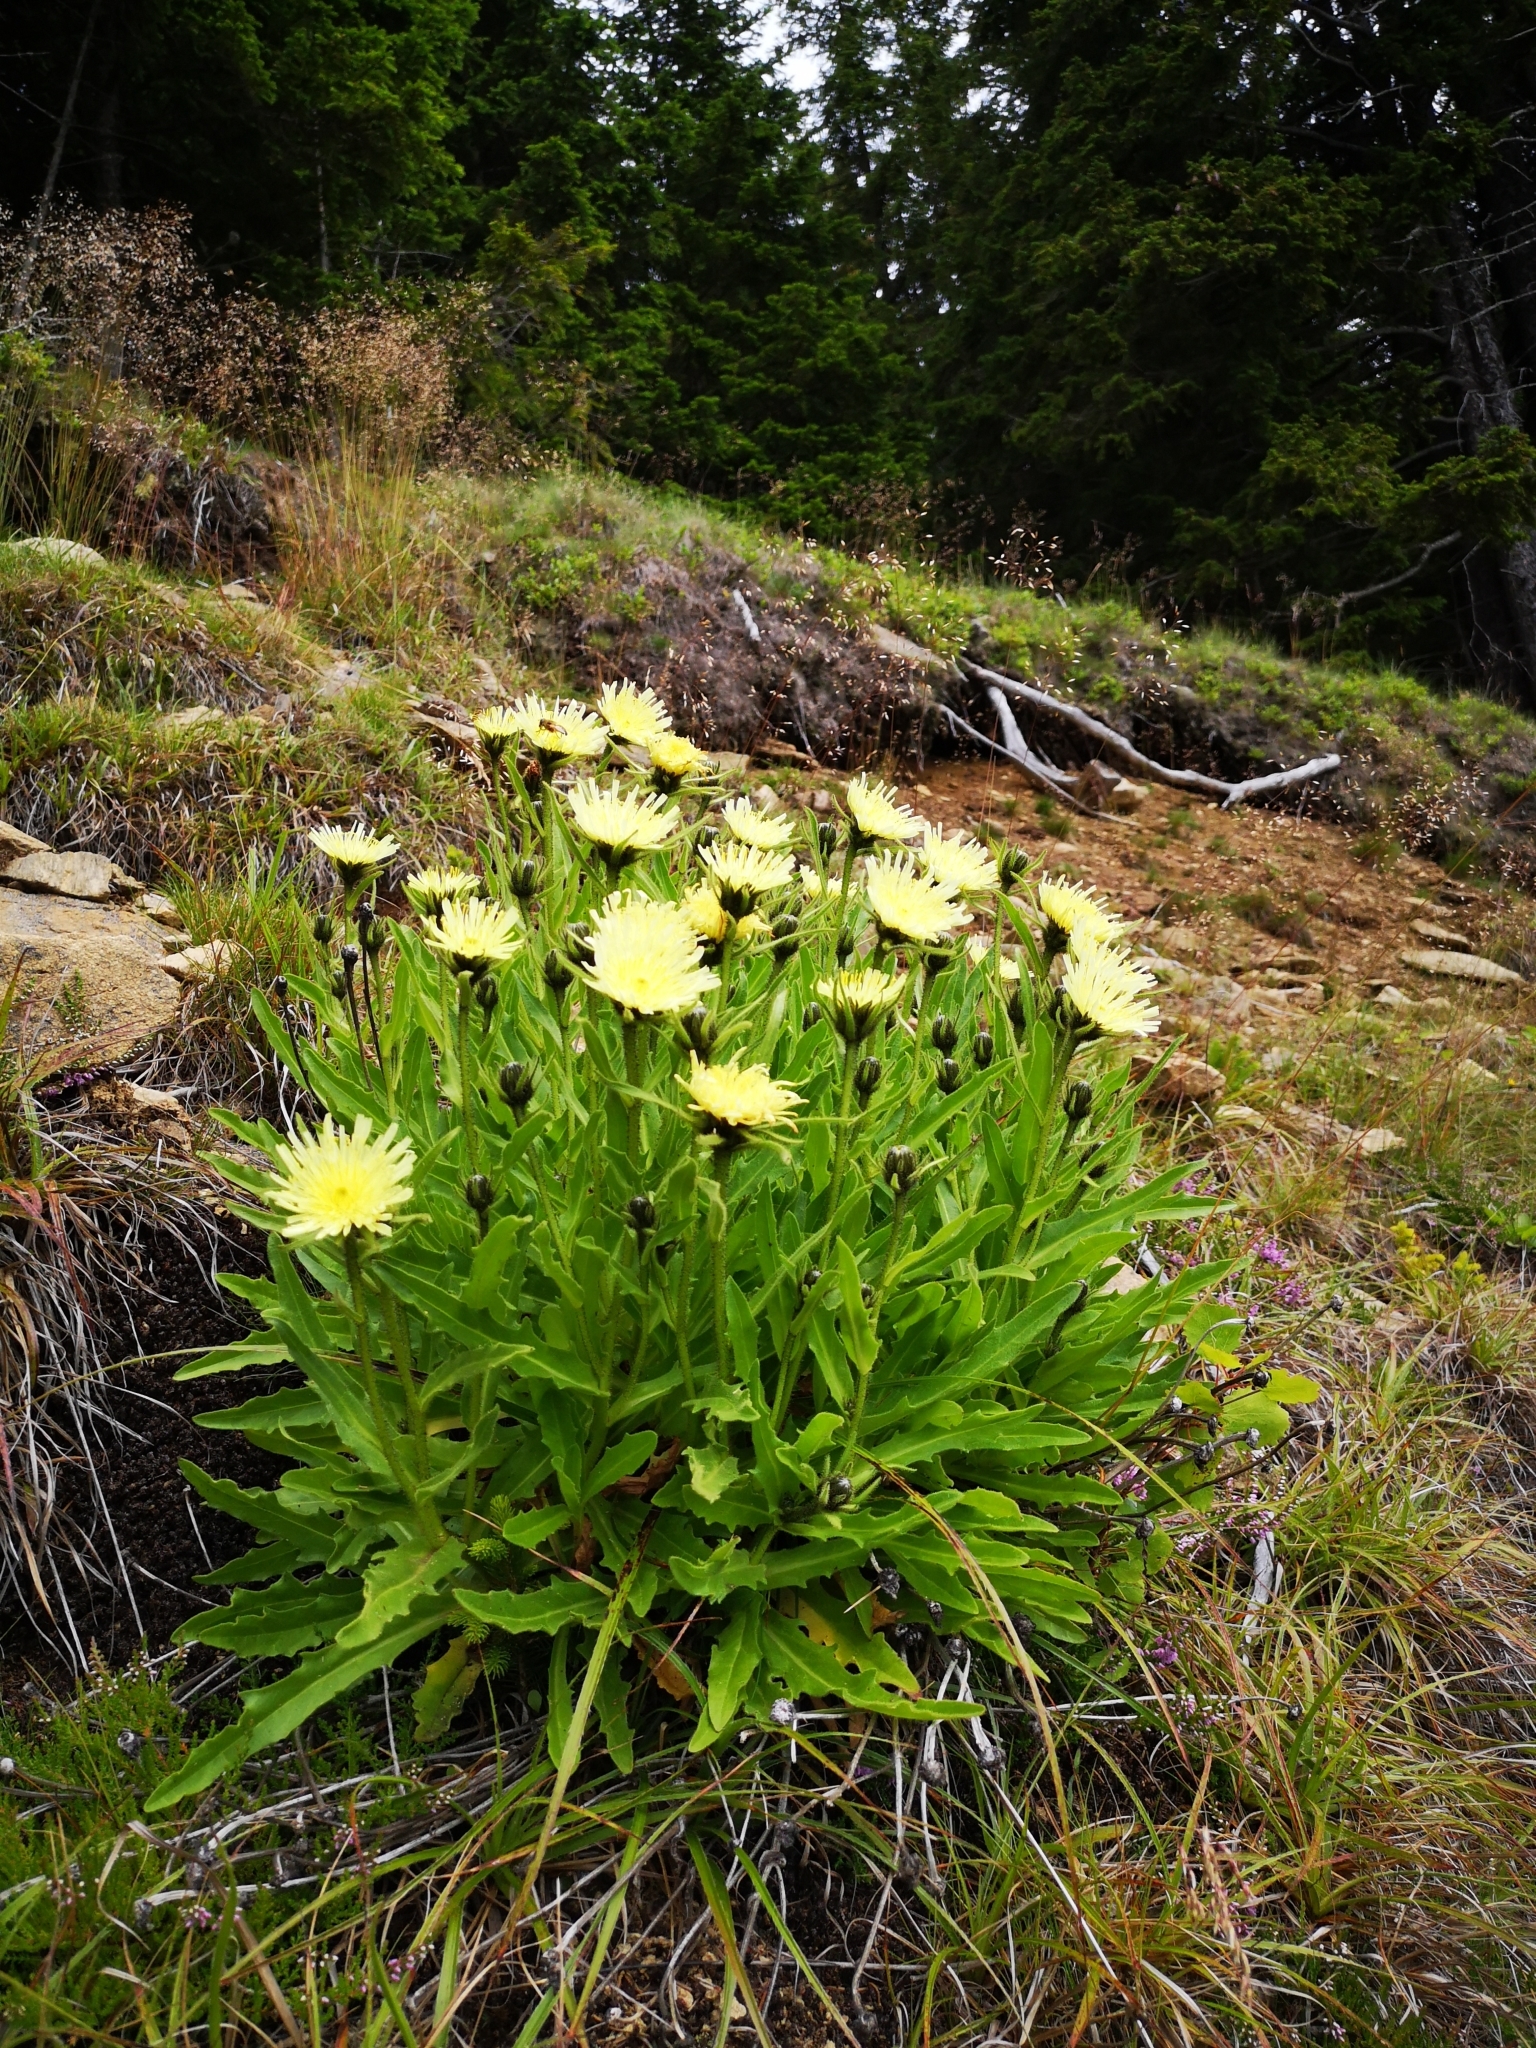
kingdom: Plantae
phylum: Tracheophyta
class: Magnoliopsida
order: Asterales
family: Asteraceae
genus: Schlagintweitia
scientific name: Schlagintweitia intybacea
